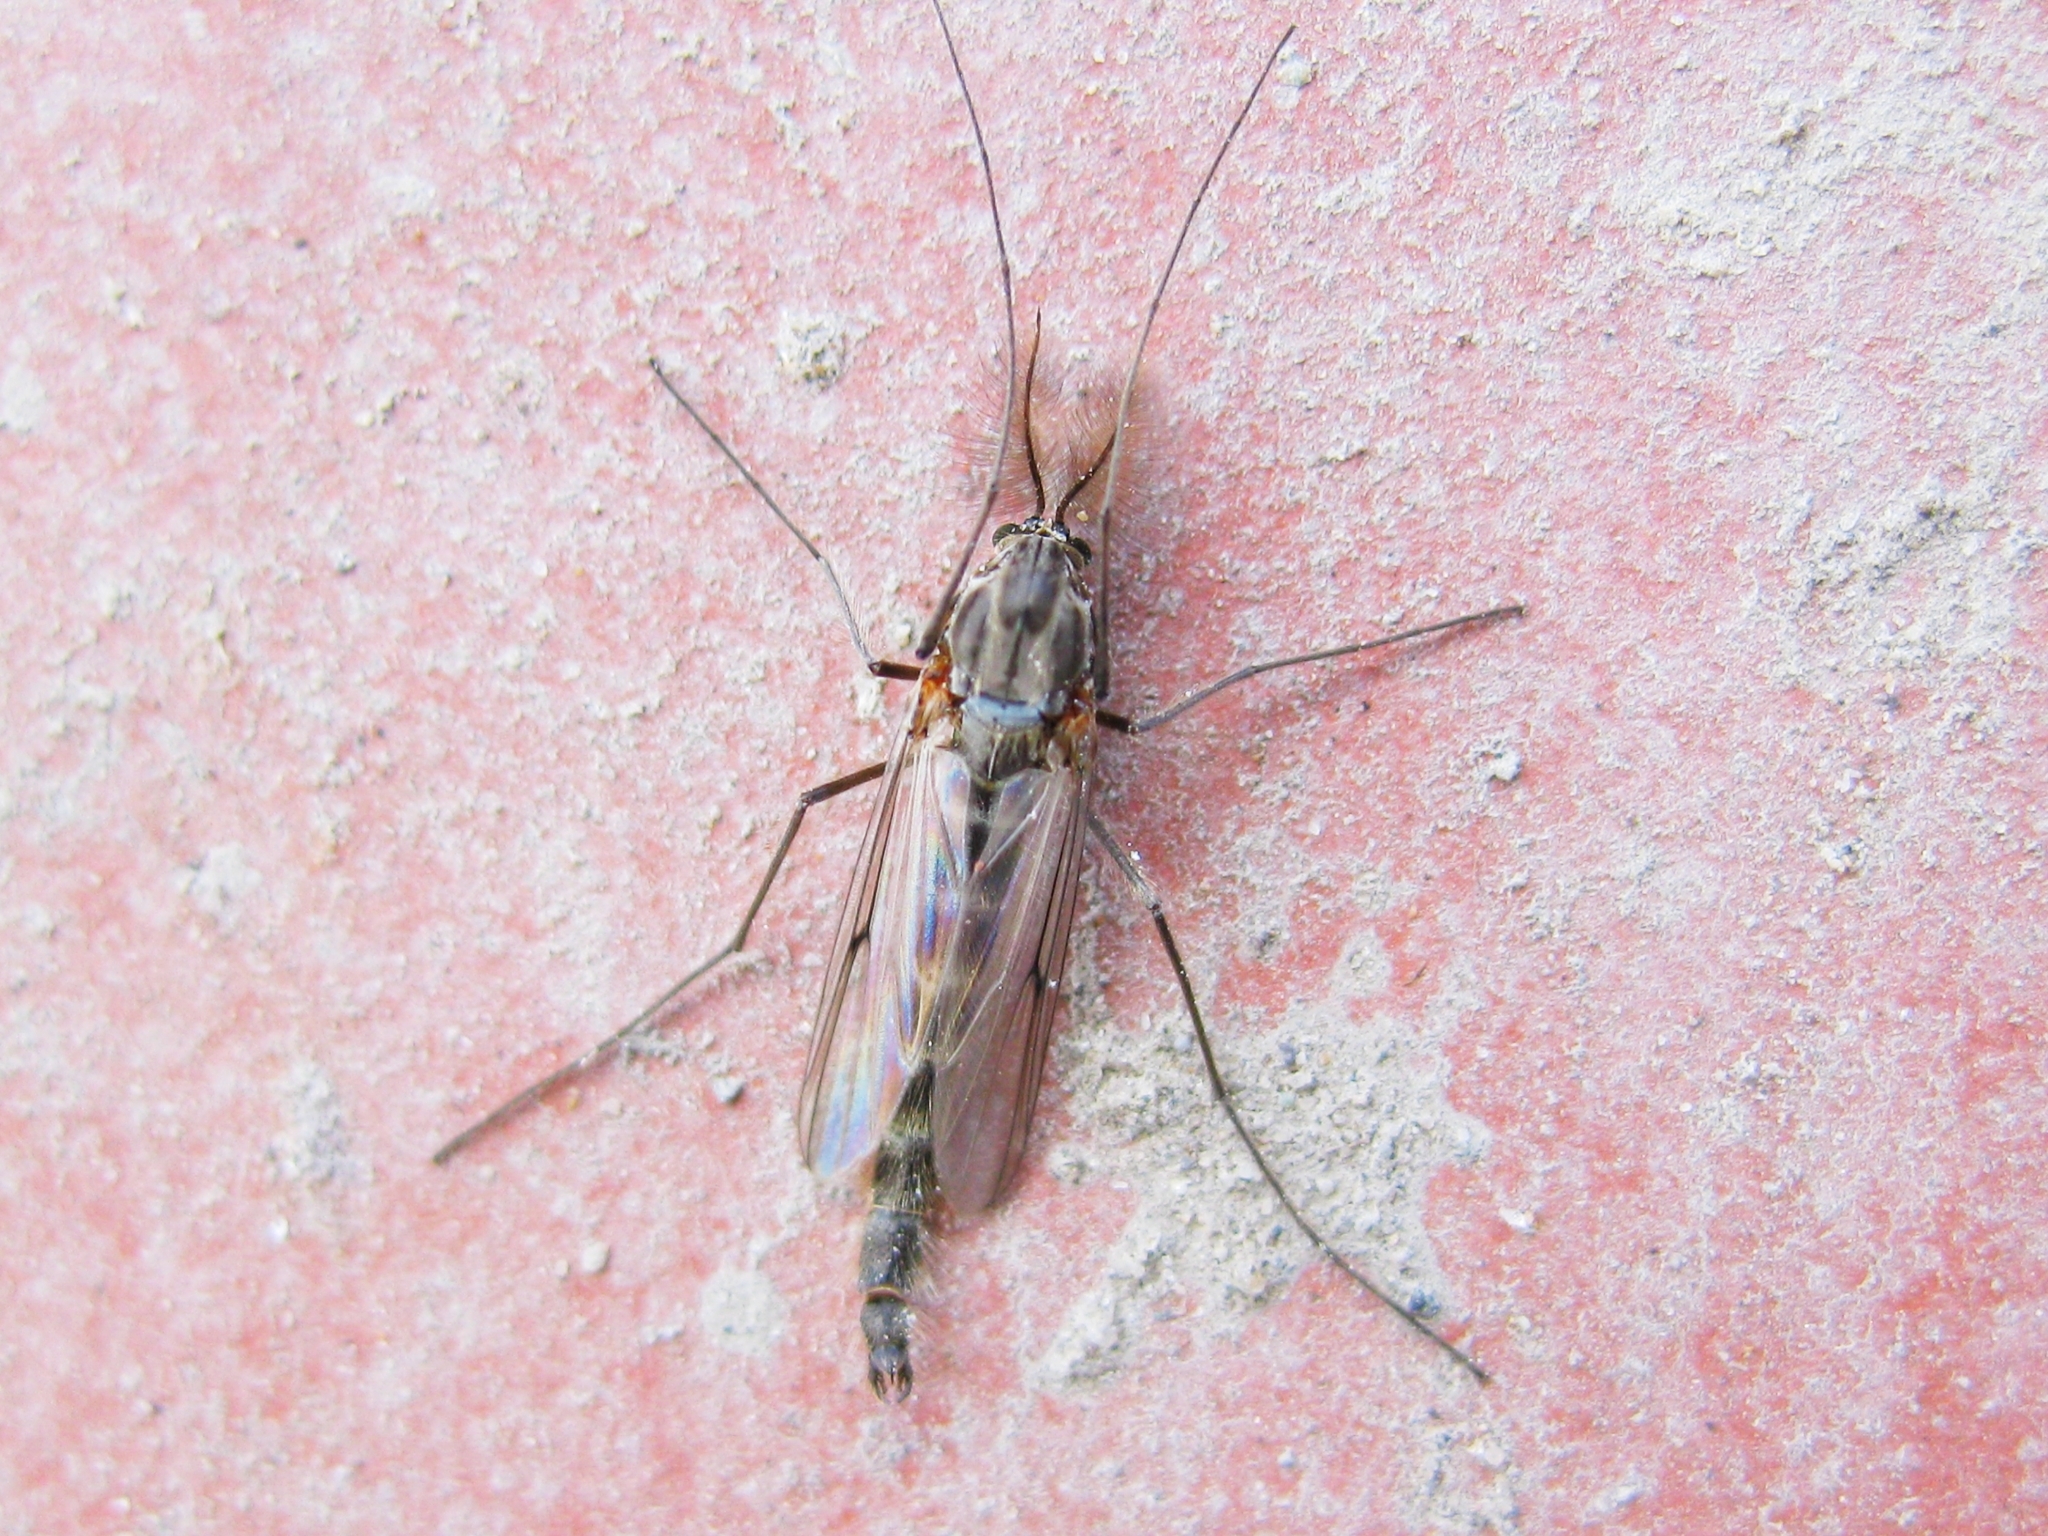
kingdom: Animalia
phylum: Arthropoda
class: Insecta
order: Diptera
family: Chironomidae
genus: Chironomus
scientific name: Chironomus
